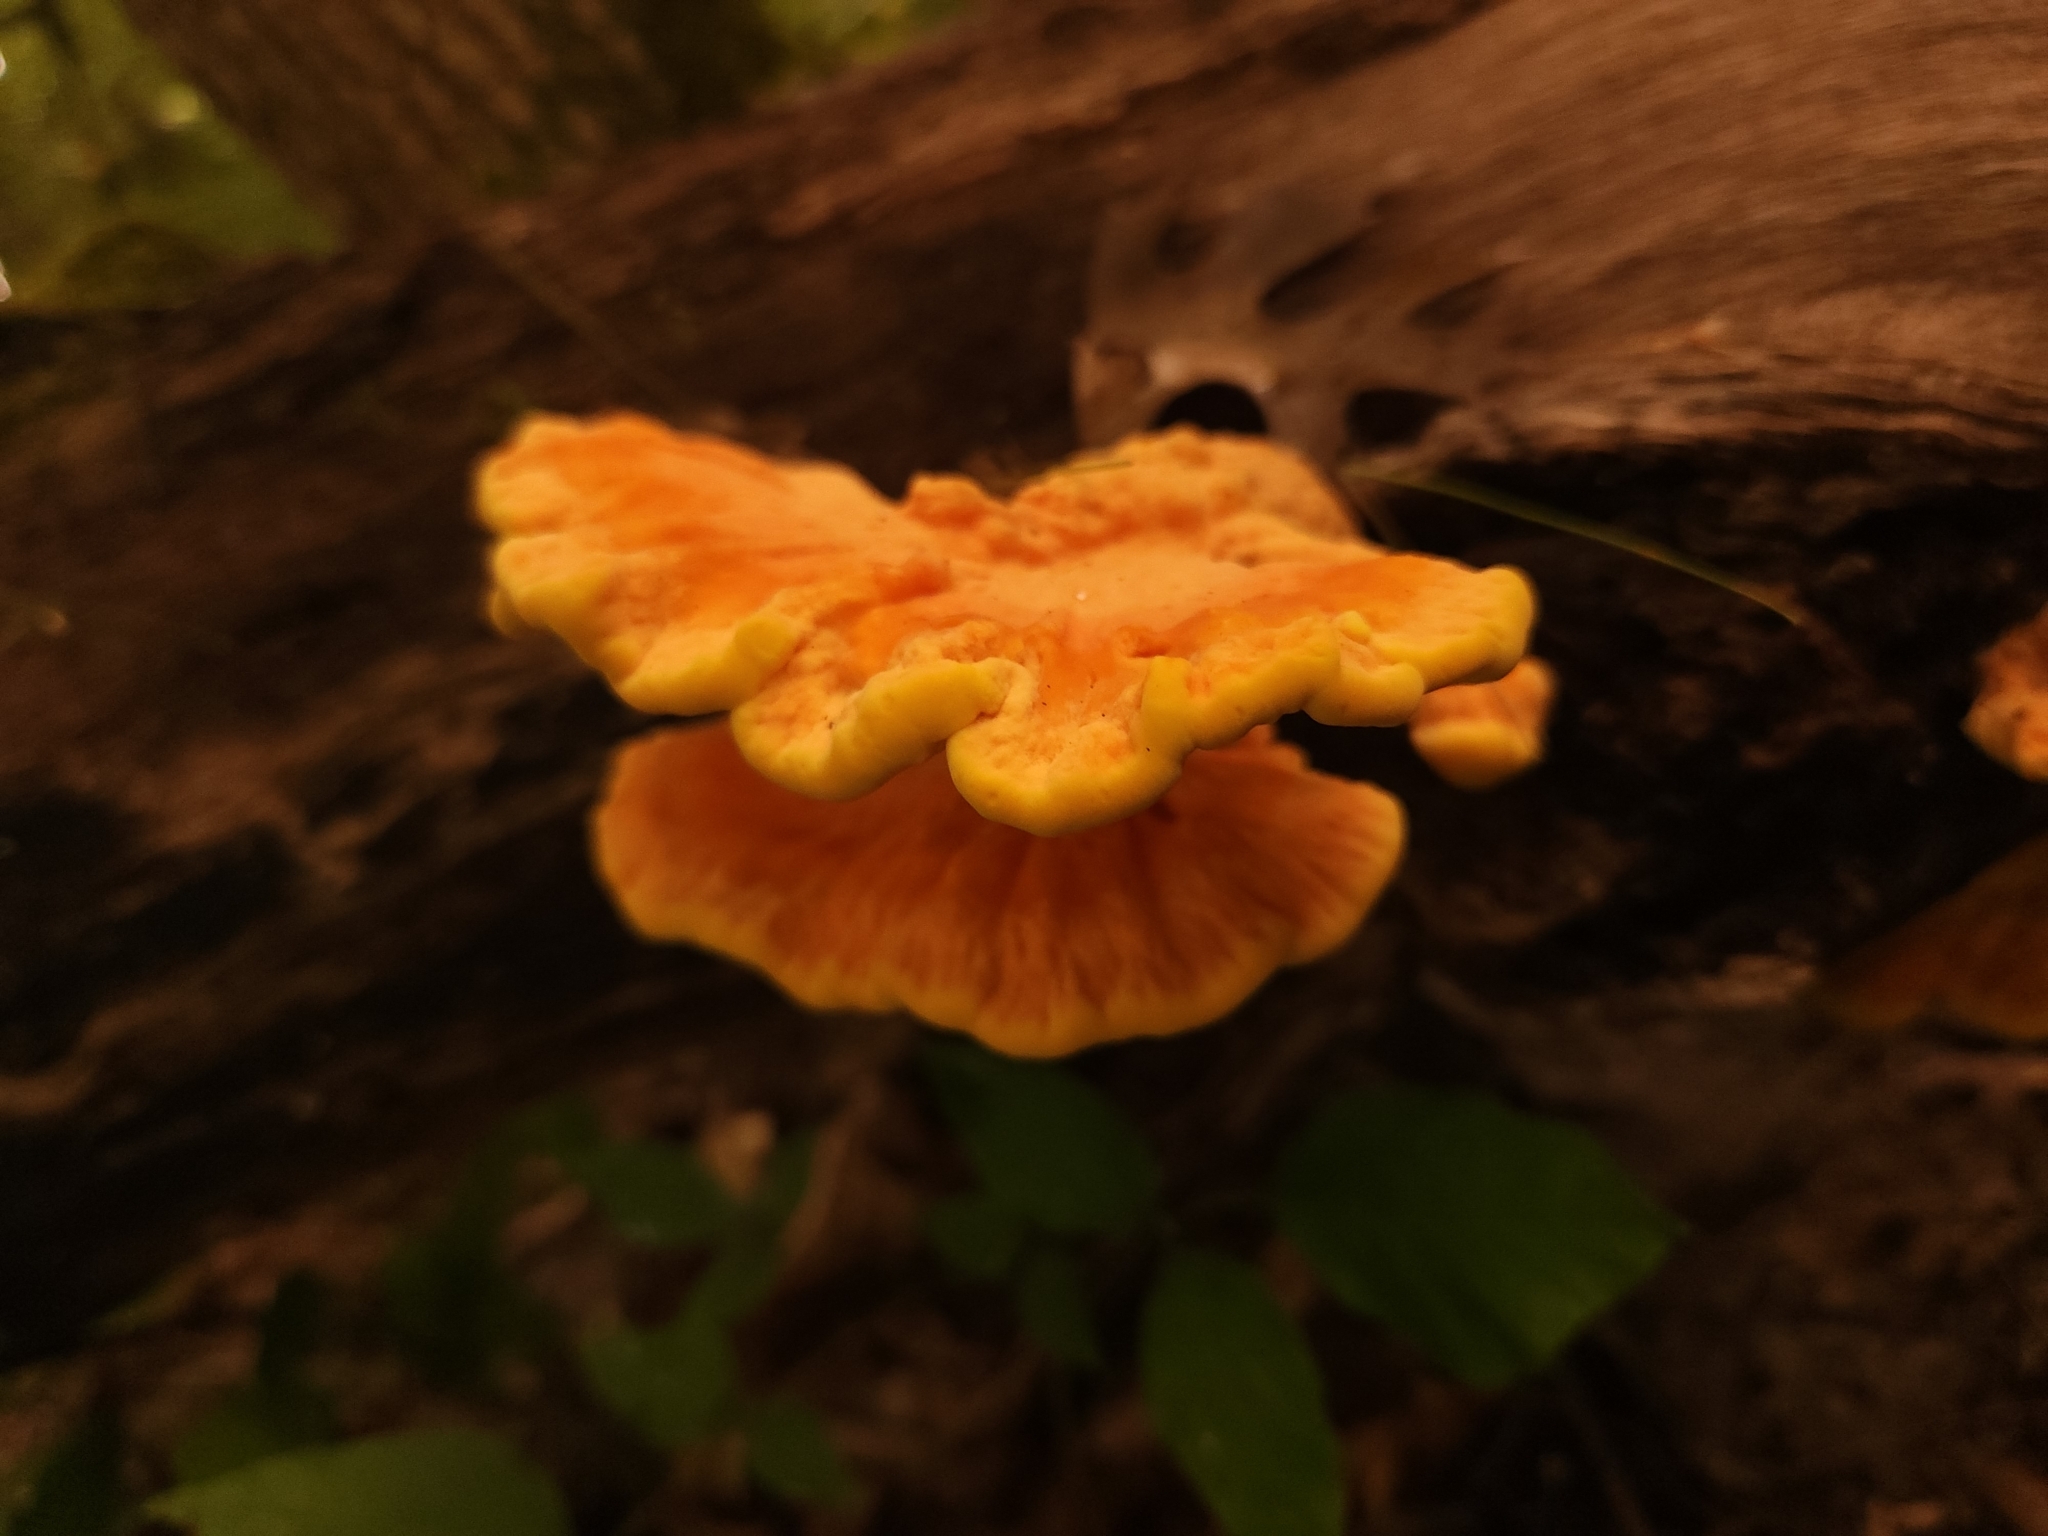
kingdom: Fungi
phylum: Basidiomycota
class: Agaricomycetes
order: Polyporales
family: Laetiporaceae
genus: Laetiporus
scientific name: Laetiporus sulphureus
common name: Chicken of the woods
